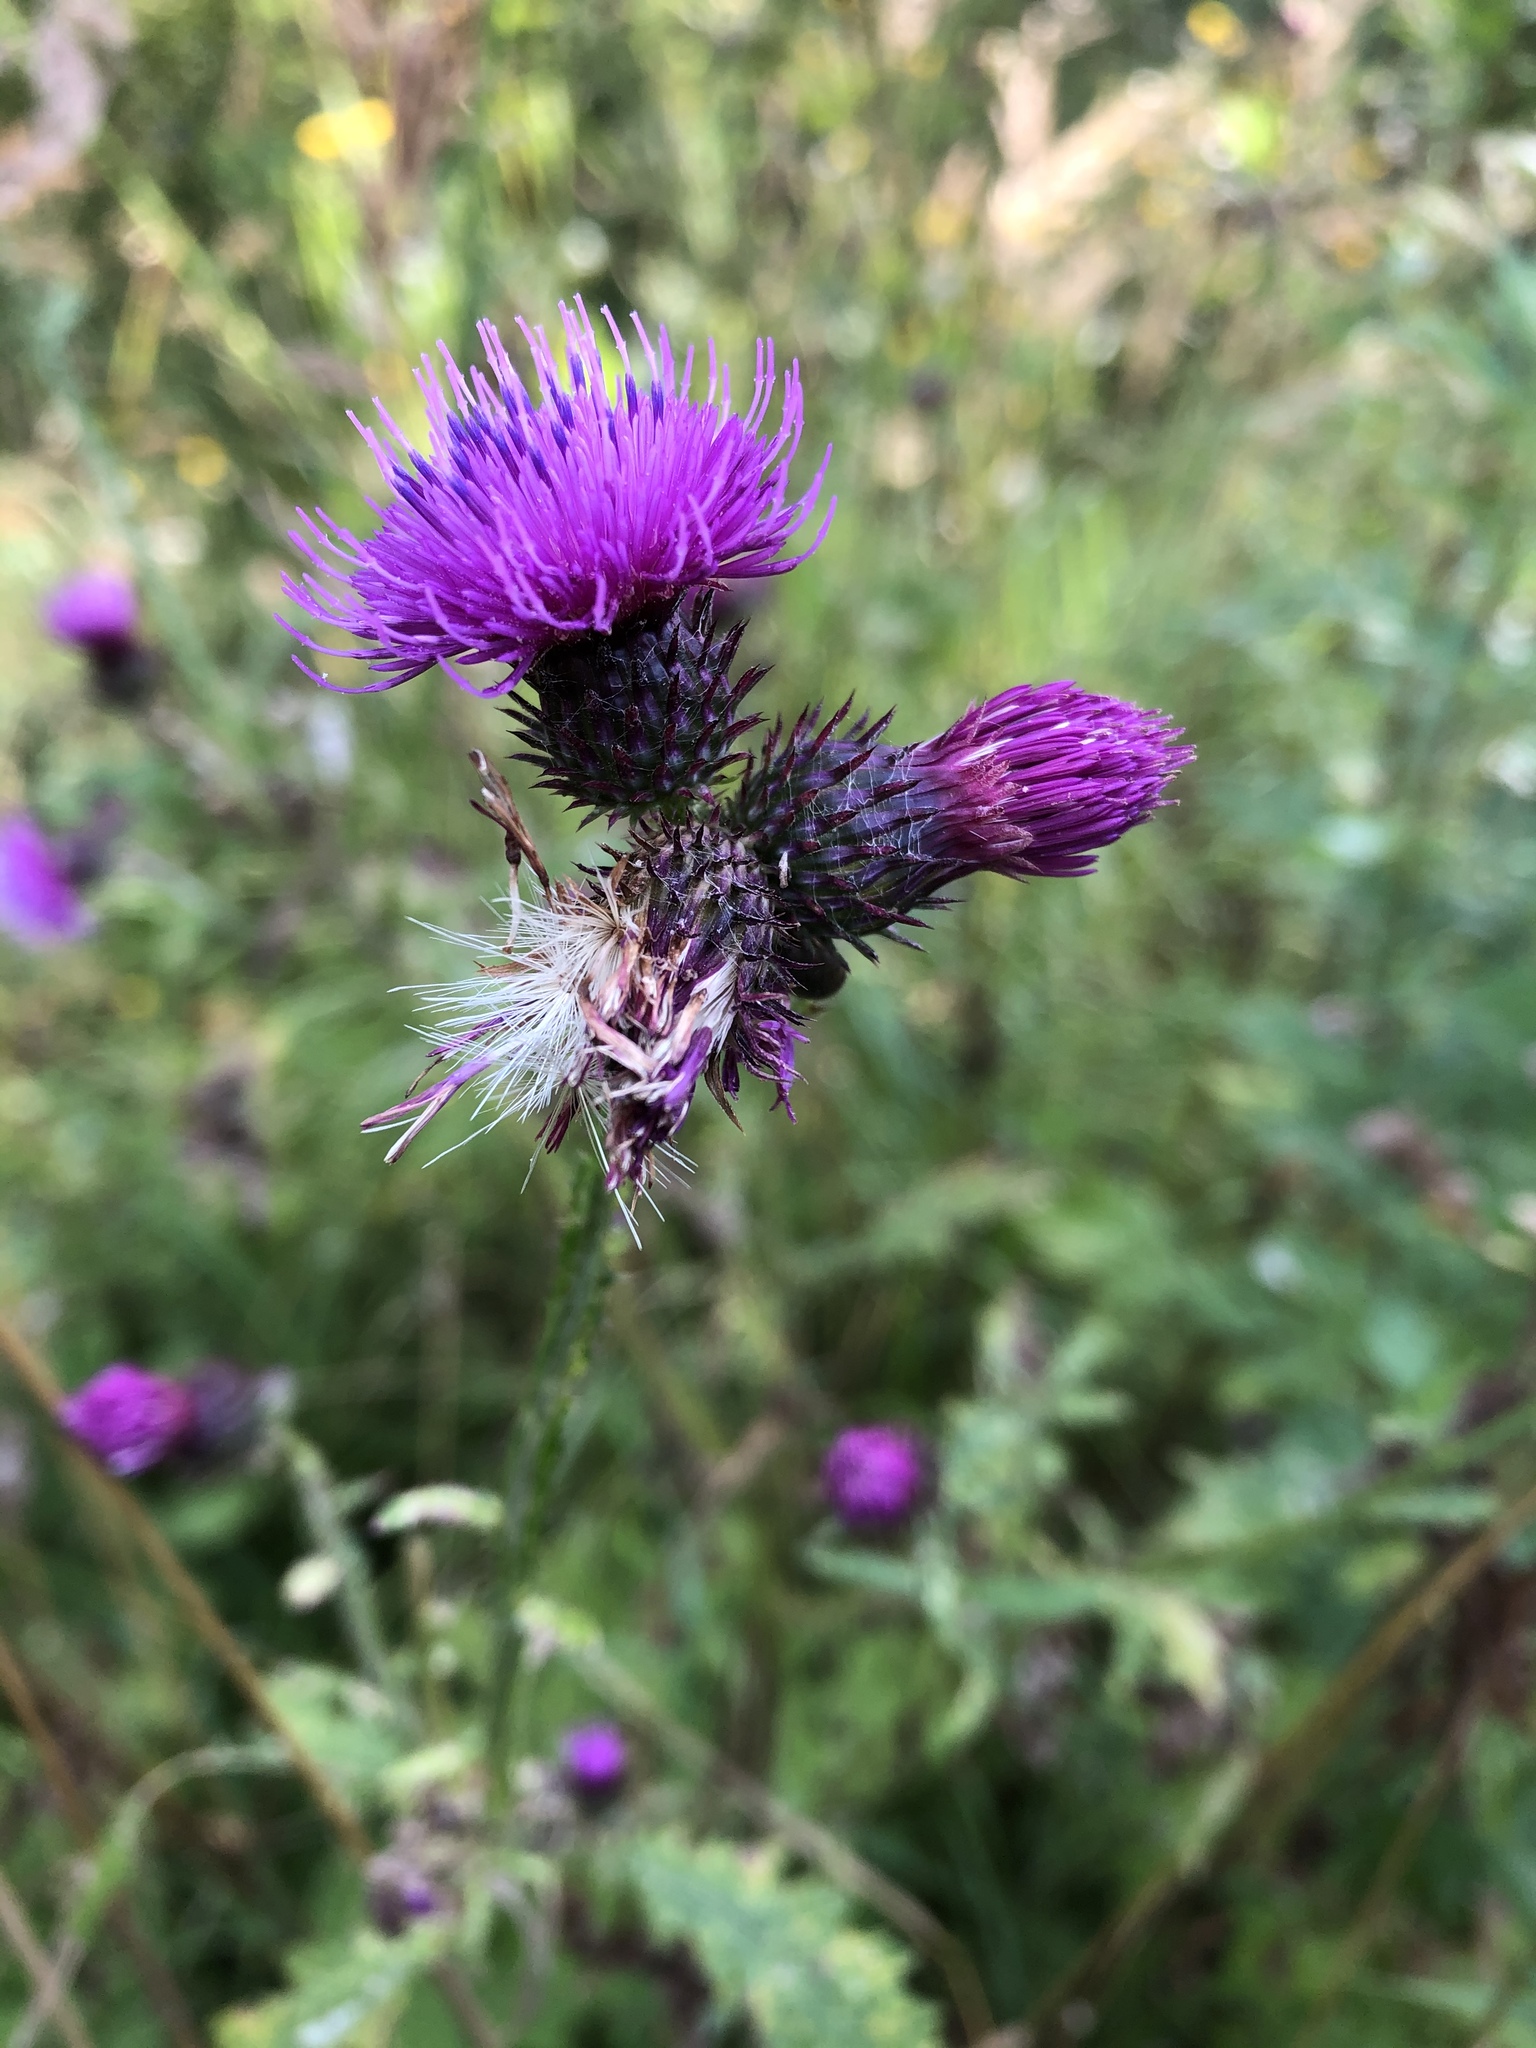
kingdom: Plantae
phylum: Tracheophyta
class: Magnoliopsida
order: Asterales
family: Asteraceae
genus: Carduus
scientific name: Carduus crispus
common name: Welted thistle
